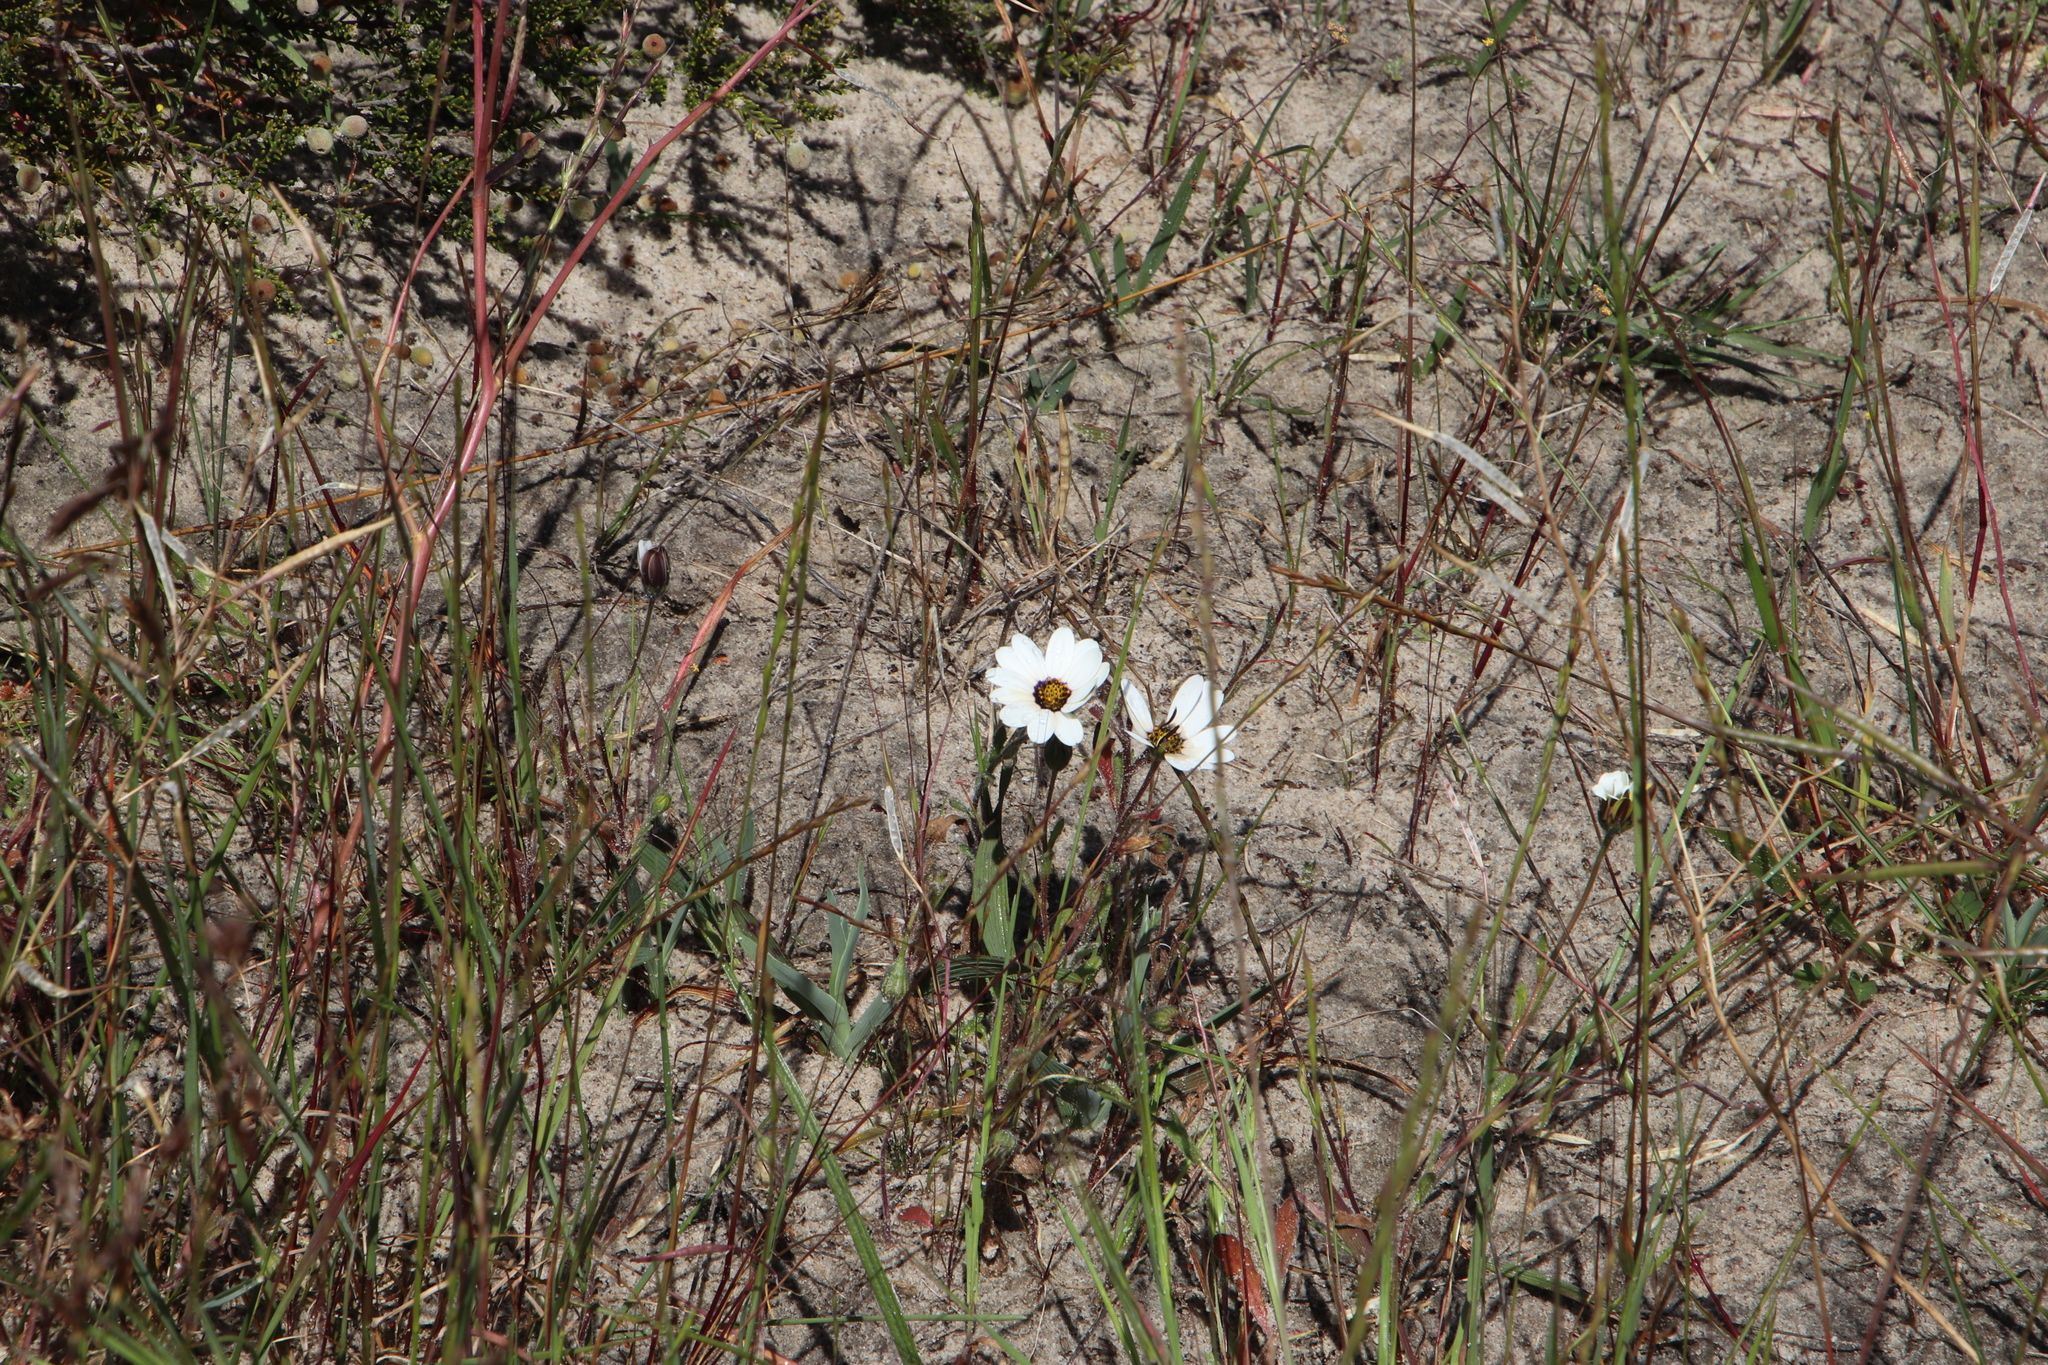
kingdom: Plantae
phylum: Tracheophyta
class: Magnoliopsida
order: Asterales
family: Asteraceae
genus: Dimorphotheca
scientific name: Dimorphotheca pluvialis
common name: Weather prophet
